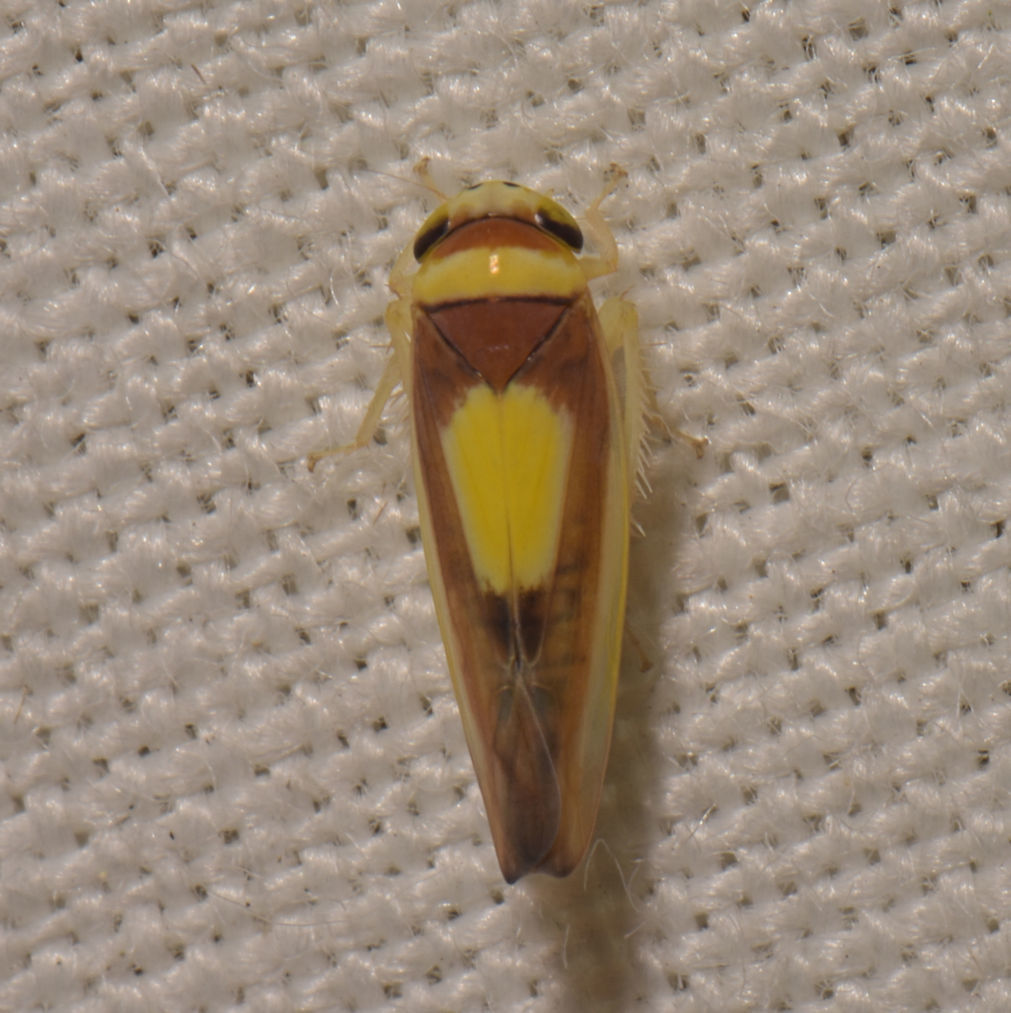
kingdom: Animalia
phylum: Arthropoda
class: Insecta
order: Hemiptera
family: Cicadellidae
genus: Colladonus
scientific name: Colladonus clitellarius
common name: The saddleback leafhopper
